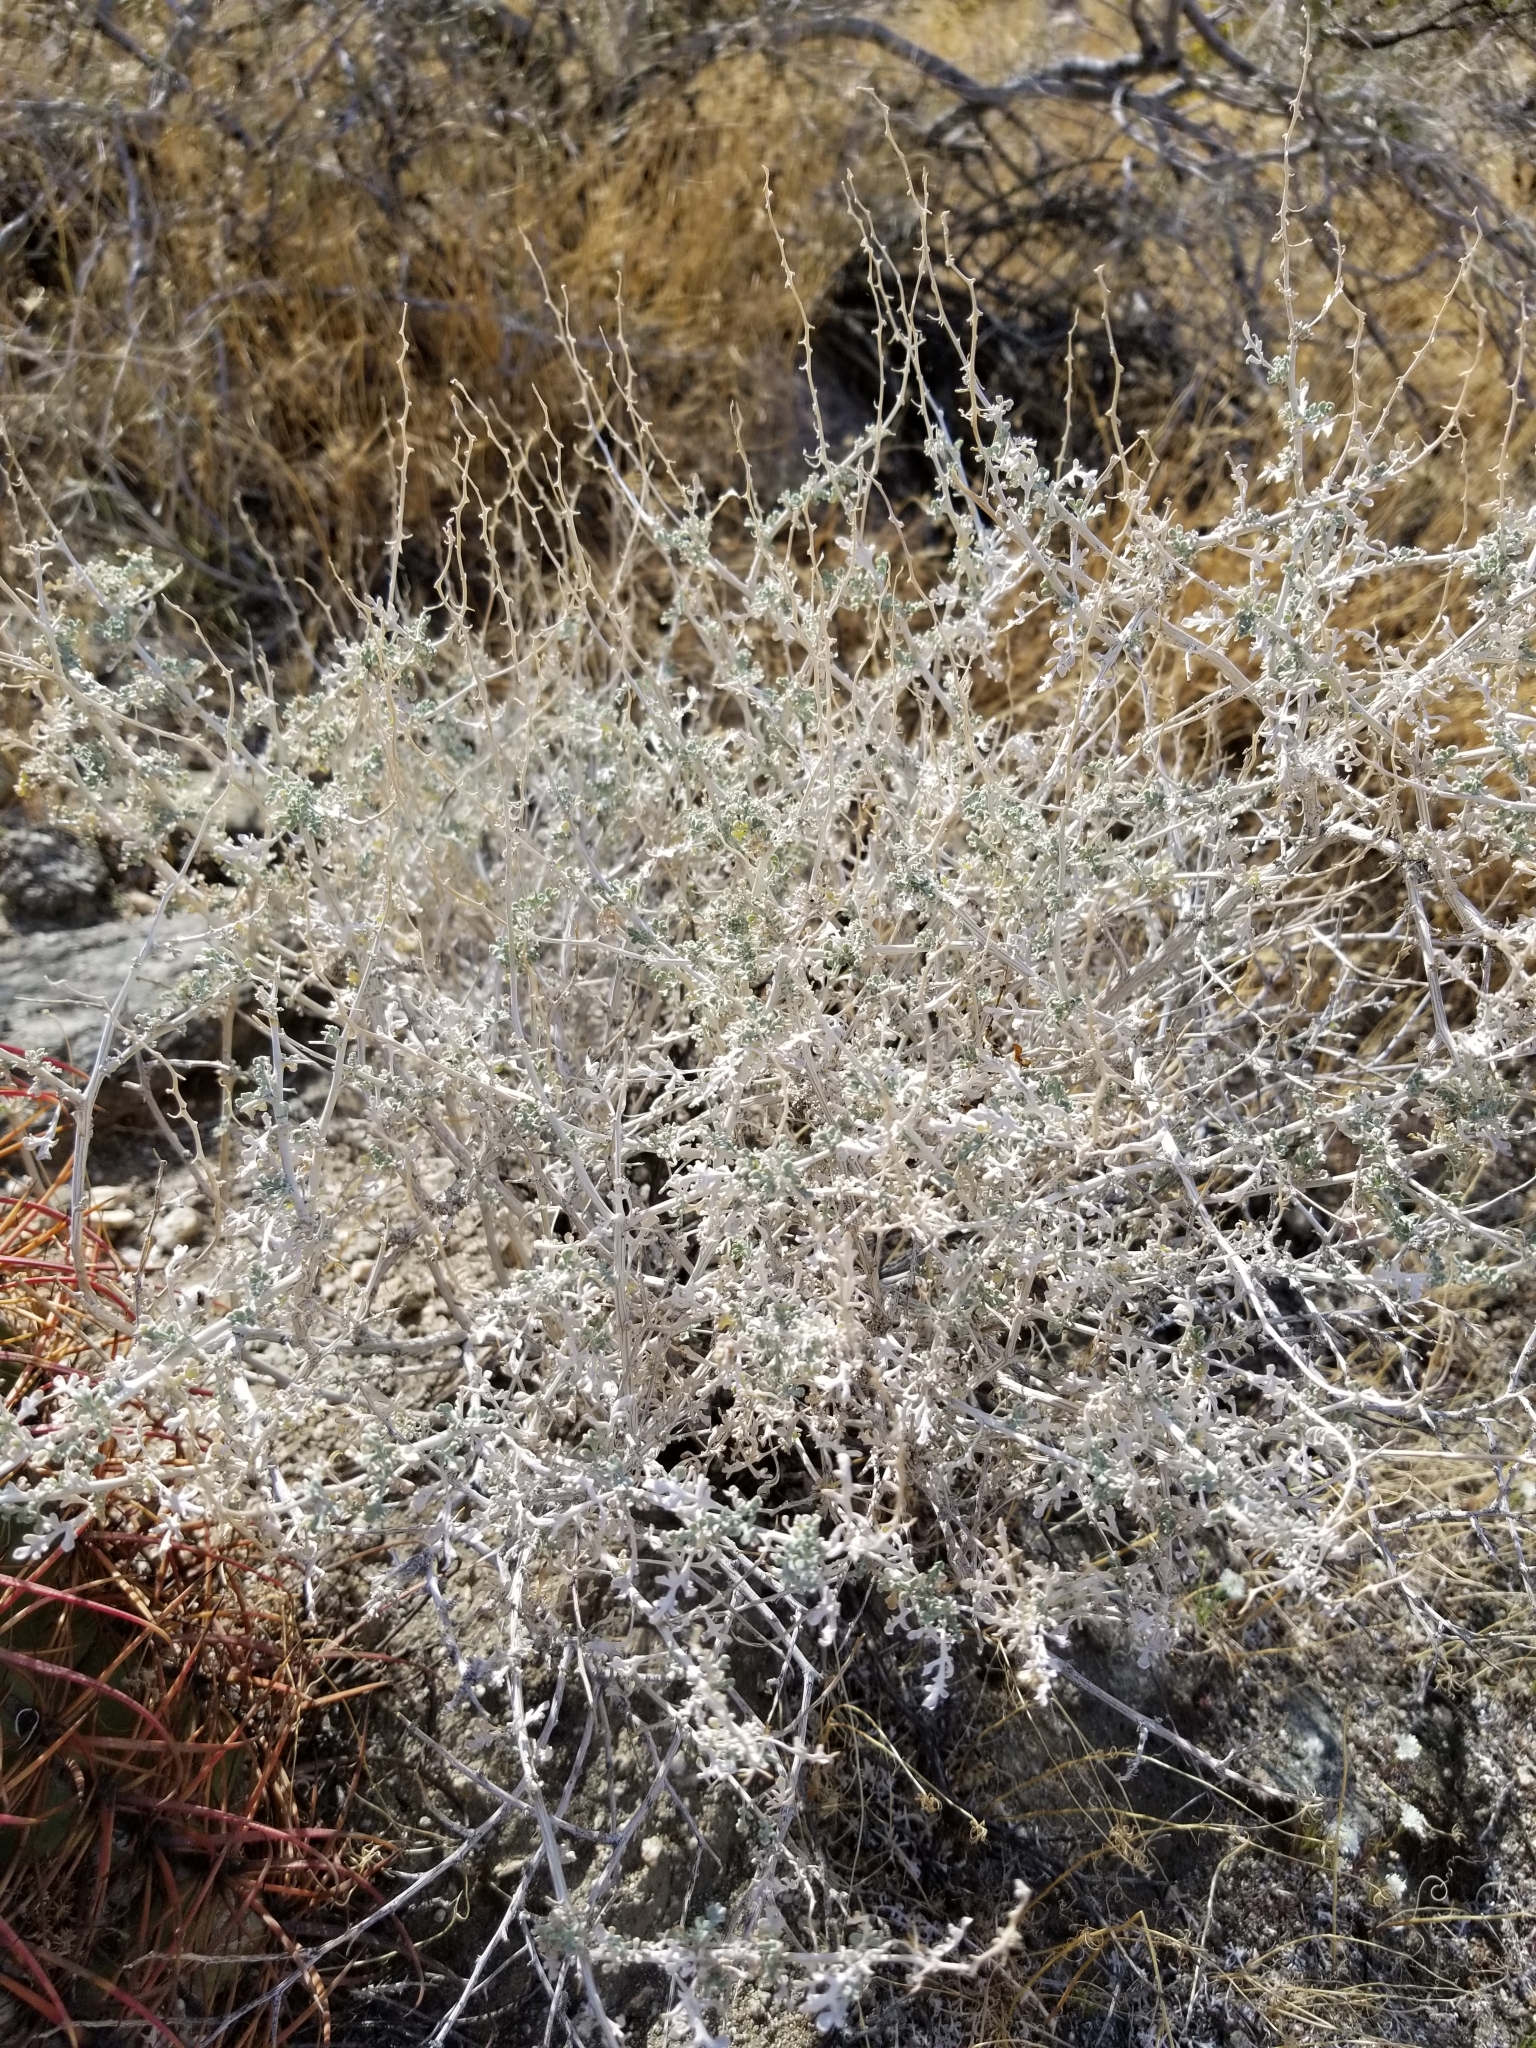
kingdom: Plantae
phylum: Tracheophyta
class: Magnoliopsida
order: Asterales
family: Asteraceae
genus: Ambrosia
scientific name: Ambrosia dumosa
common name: Bur-sage
